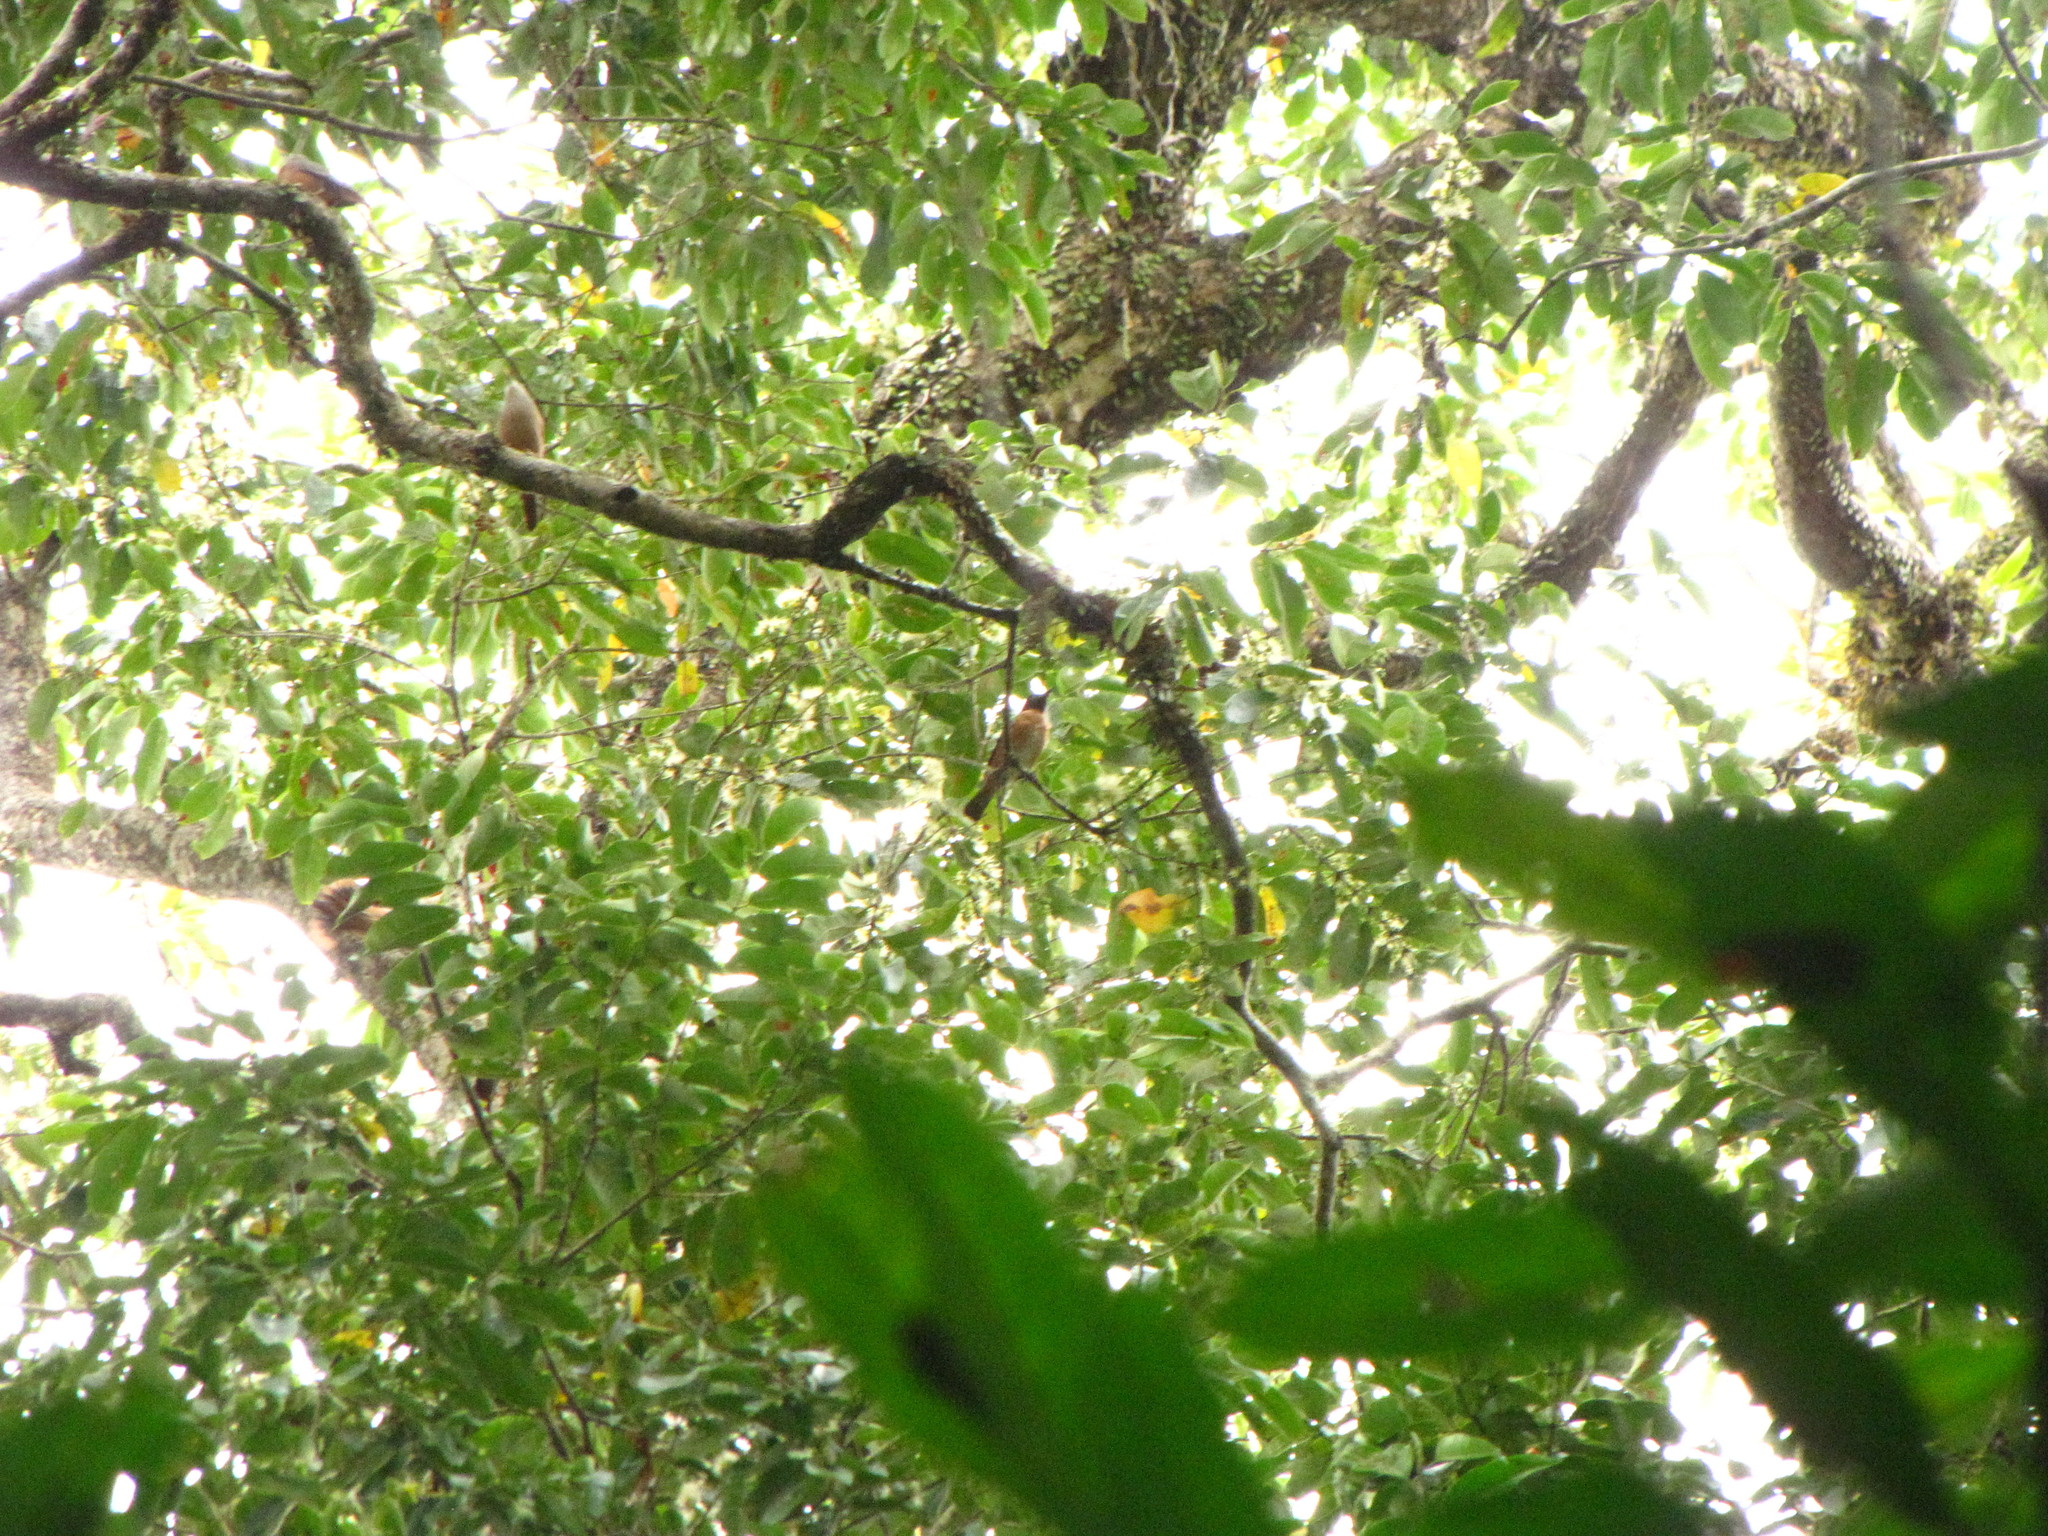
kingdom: Animalia
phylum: Chordata
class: Aves
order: Passeriformes
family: Sturnidae
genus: Saroglossa
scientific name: Saroglossa spiloptera
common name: Spot-winged starling
